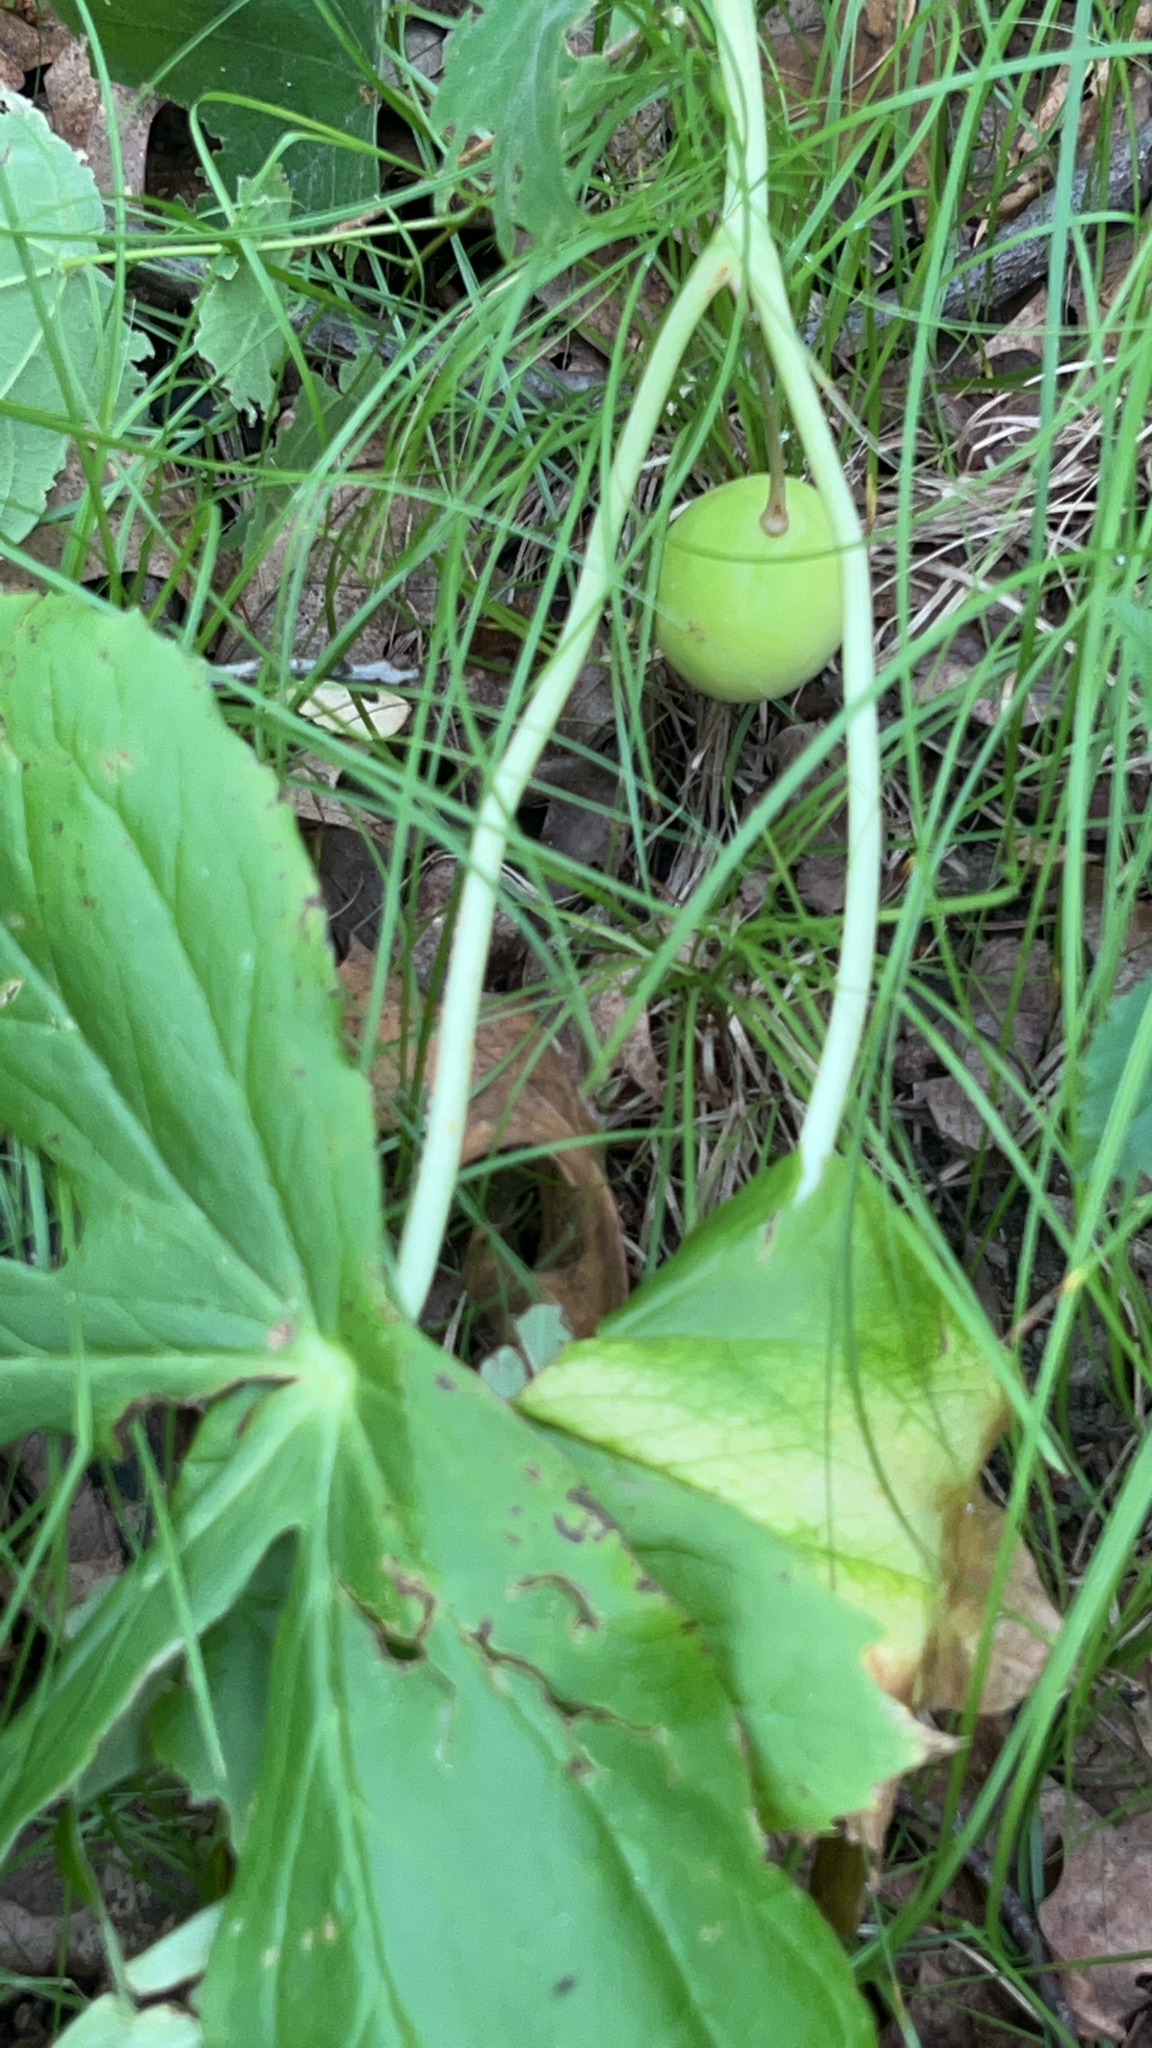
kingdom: Plantae
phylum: Tracheophyta
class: Magnoliopsida
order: Ranunculales
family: Berberidaceae
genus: Podophyllum
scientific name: Podophyllum peltatum
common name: Wild mandrake
